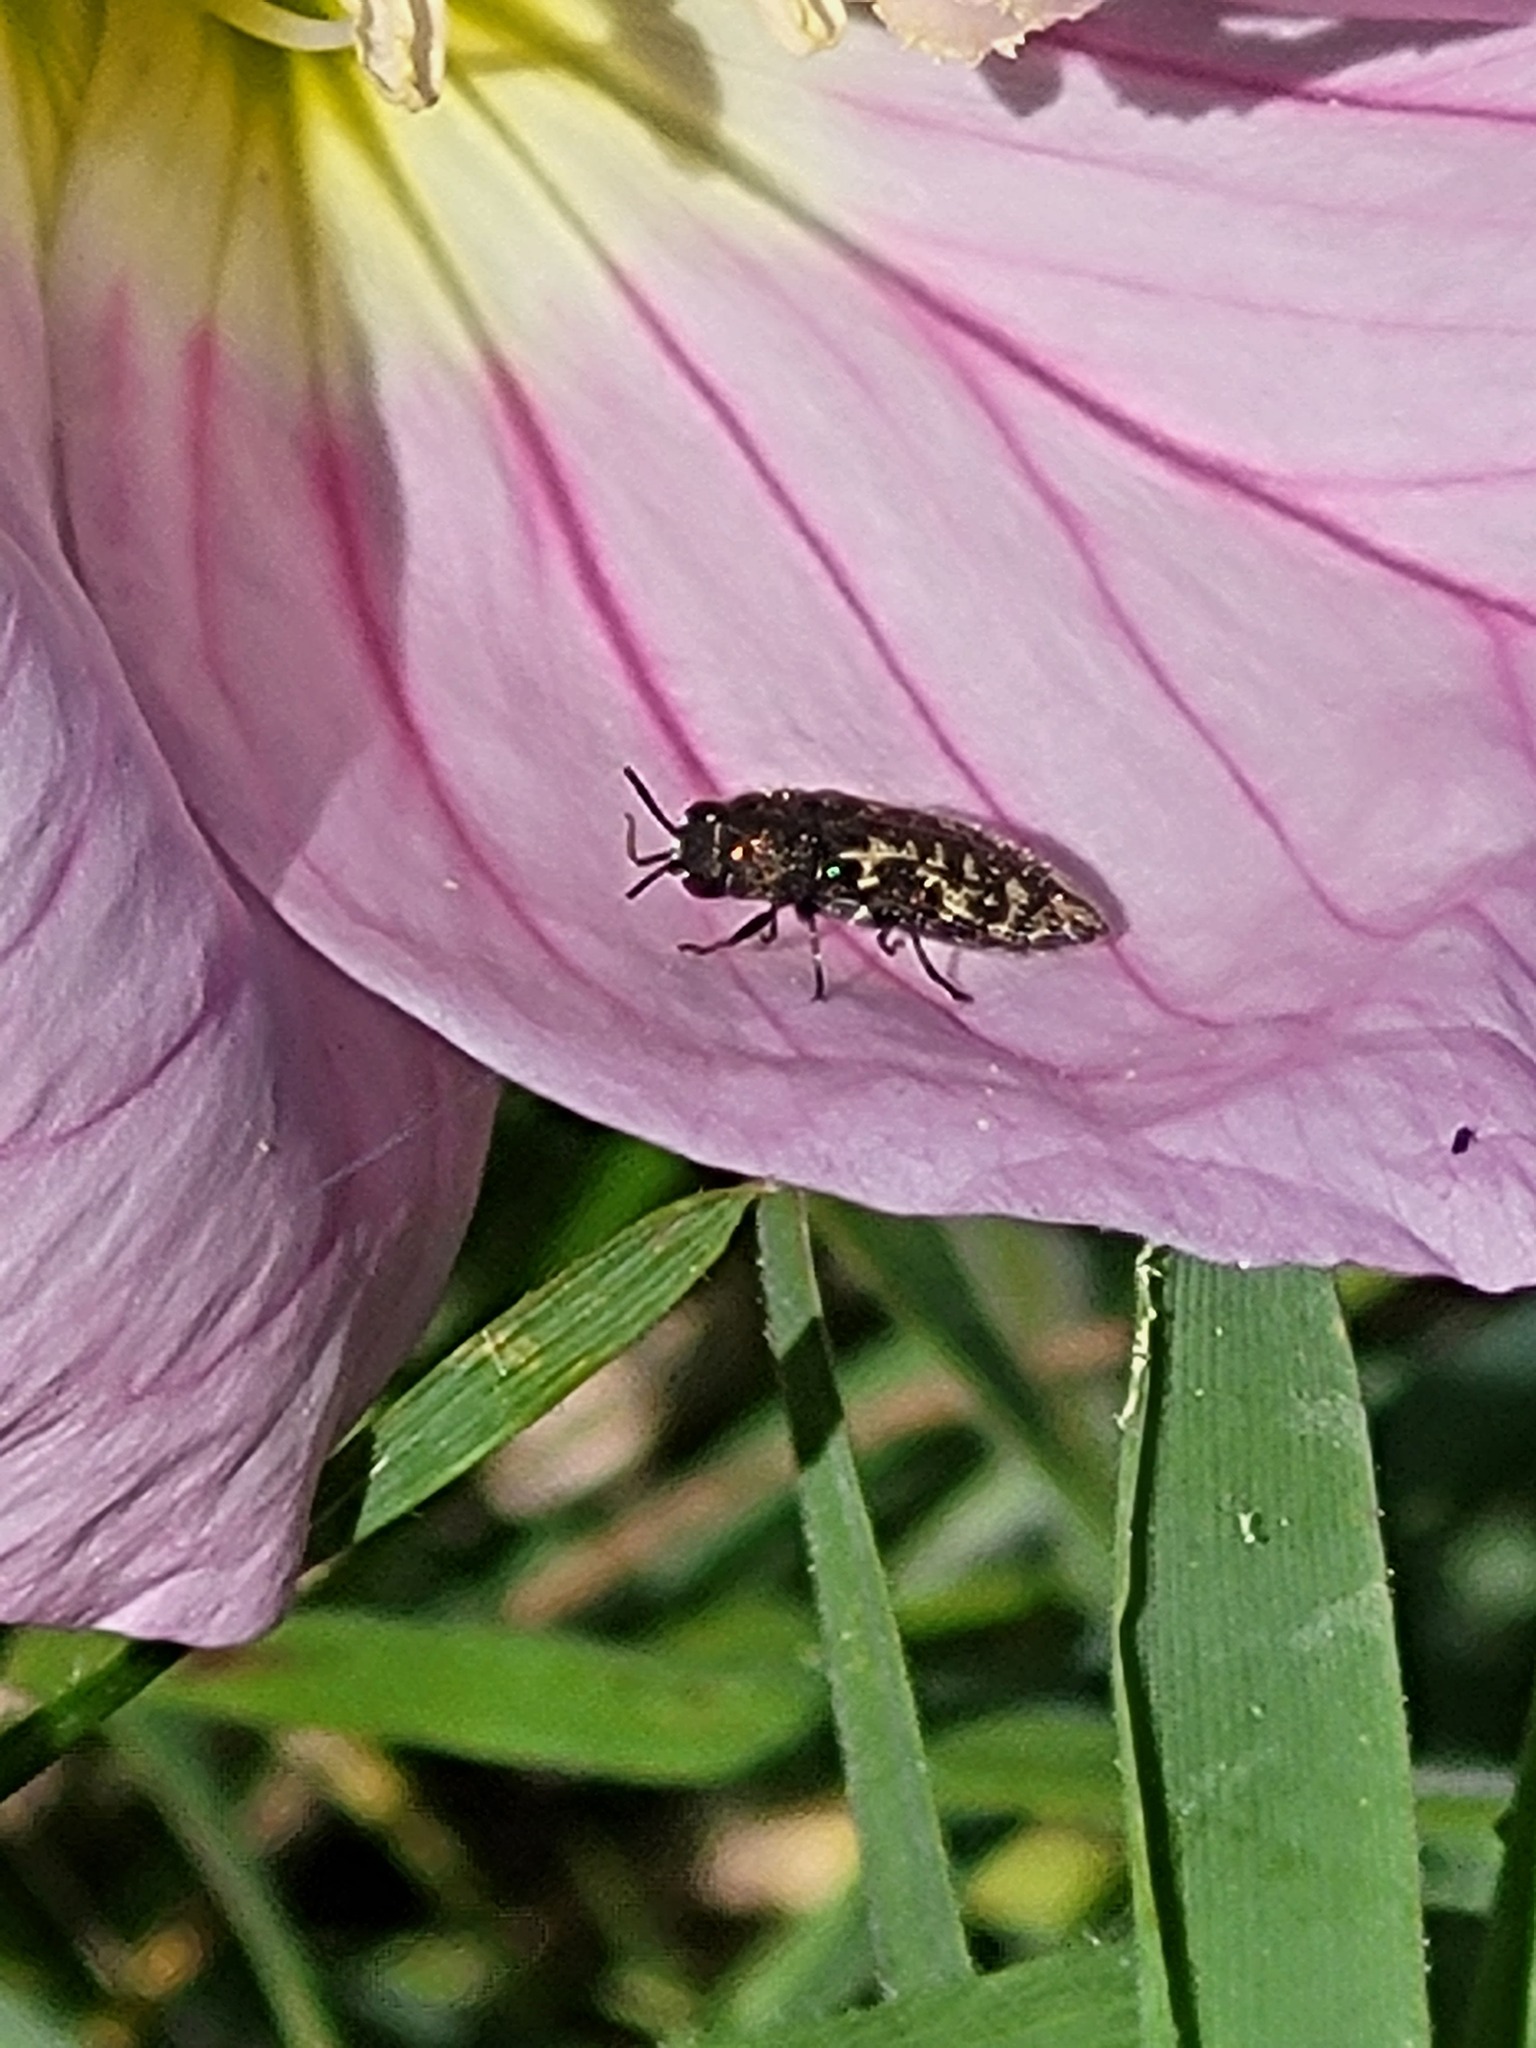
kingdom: Animalia
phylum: Arthropoda
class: Insecta
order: Coleoptera
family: Buprestidae
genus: Acmaeodera
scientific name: Acmaeodera neglecta
